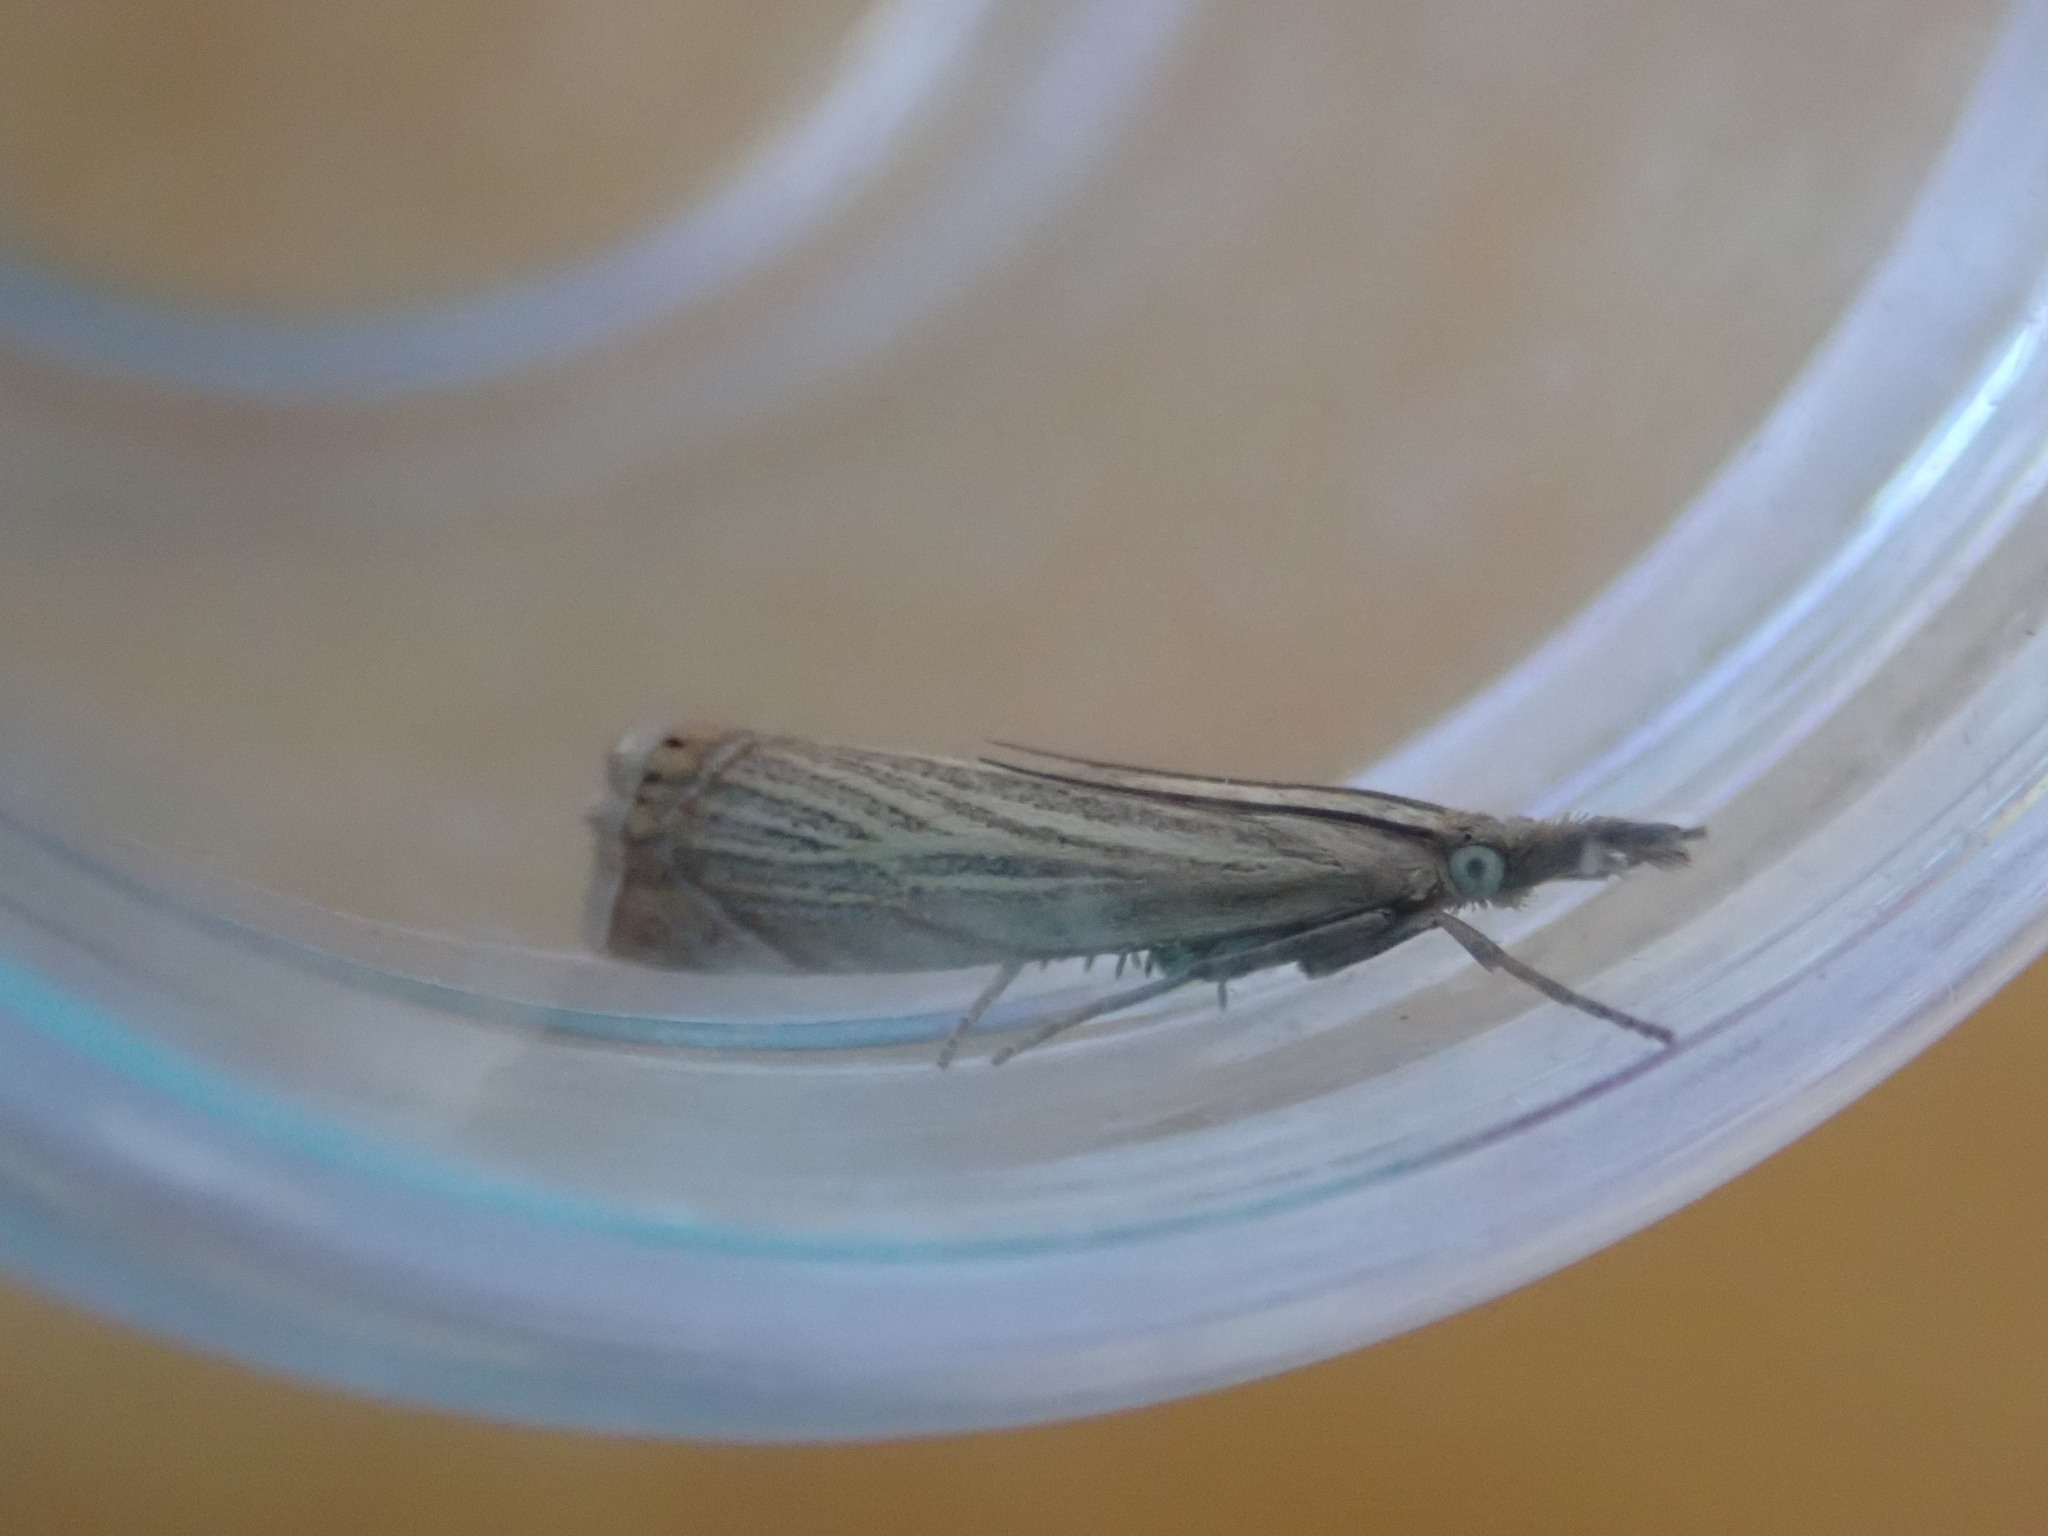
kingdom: Animalia
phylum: Arthropoda
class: Insecta
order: Lepidoptera
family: Crambidae
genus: Chrysoteuchia
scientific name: Chrysoteuchia culmella
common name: Garden grass-veneer
